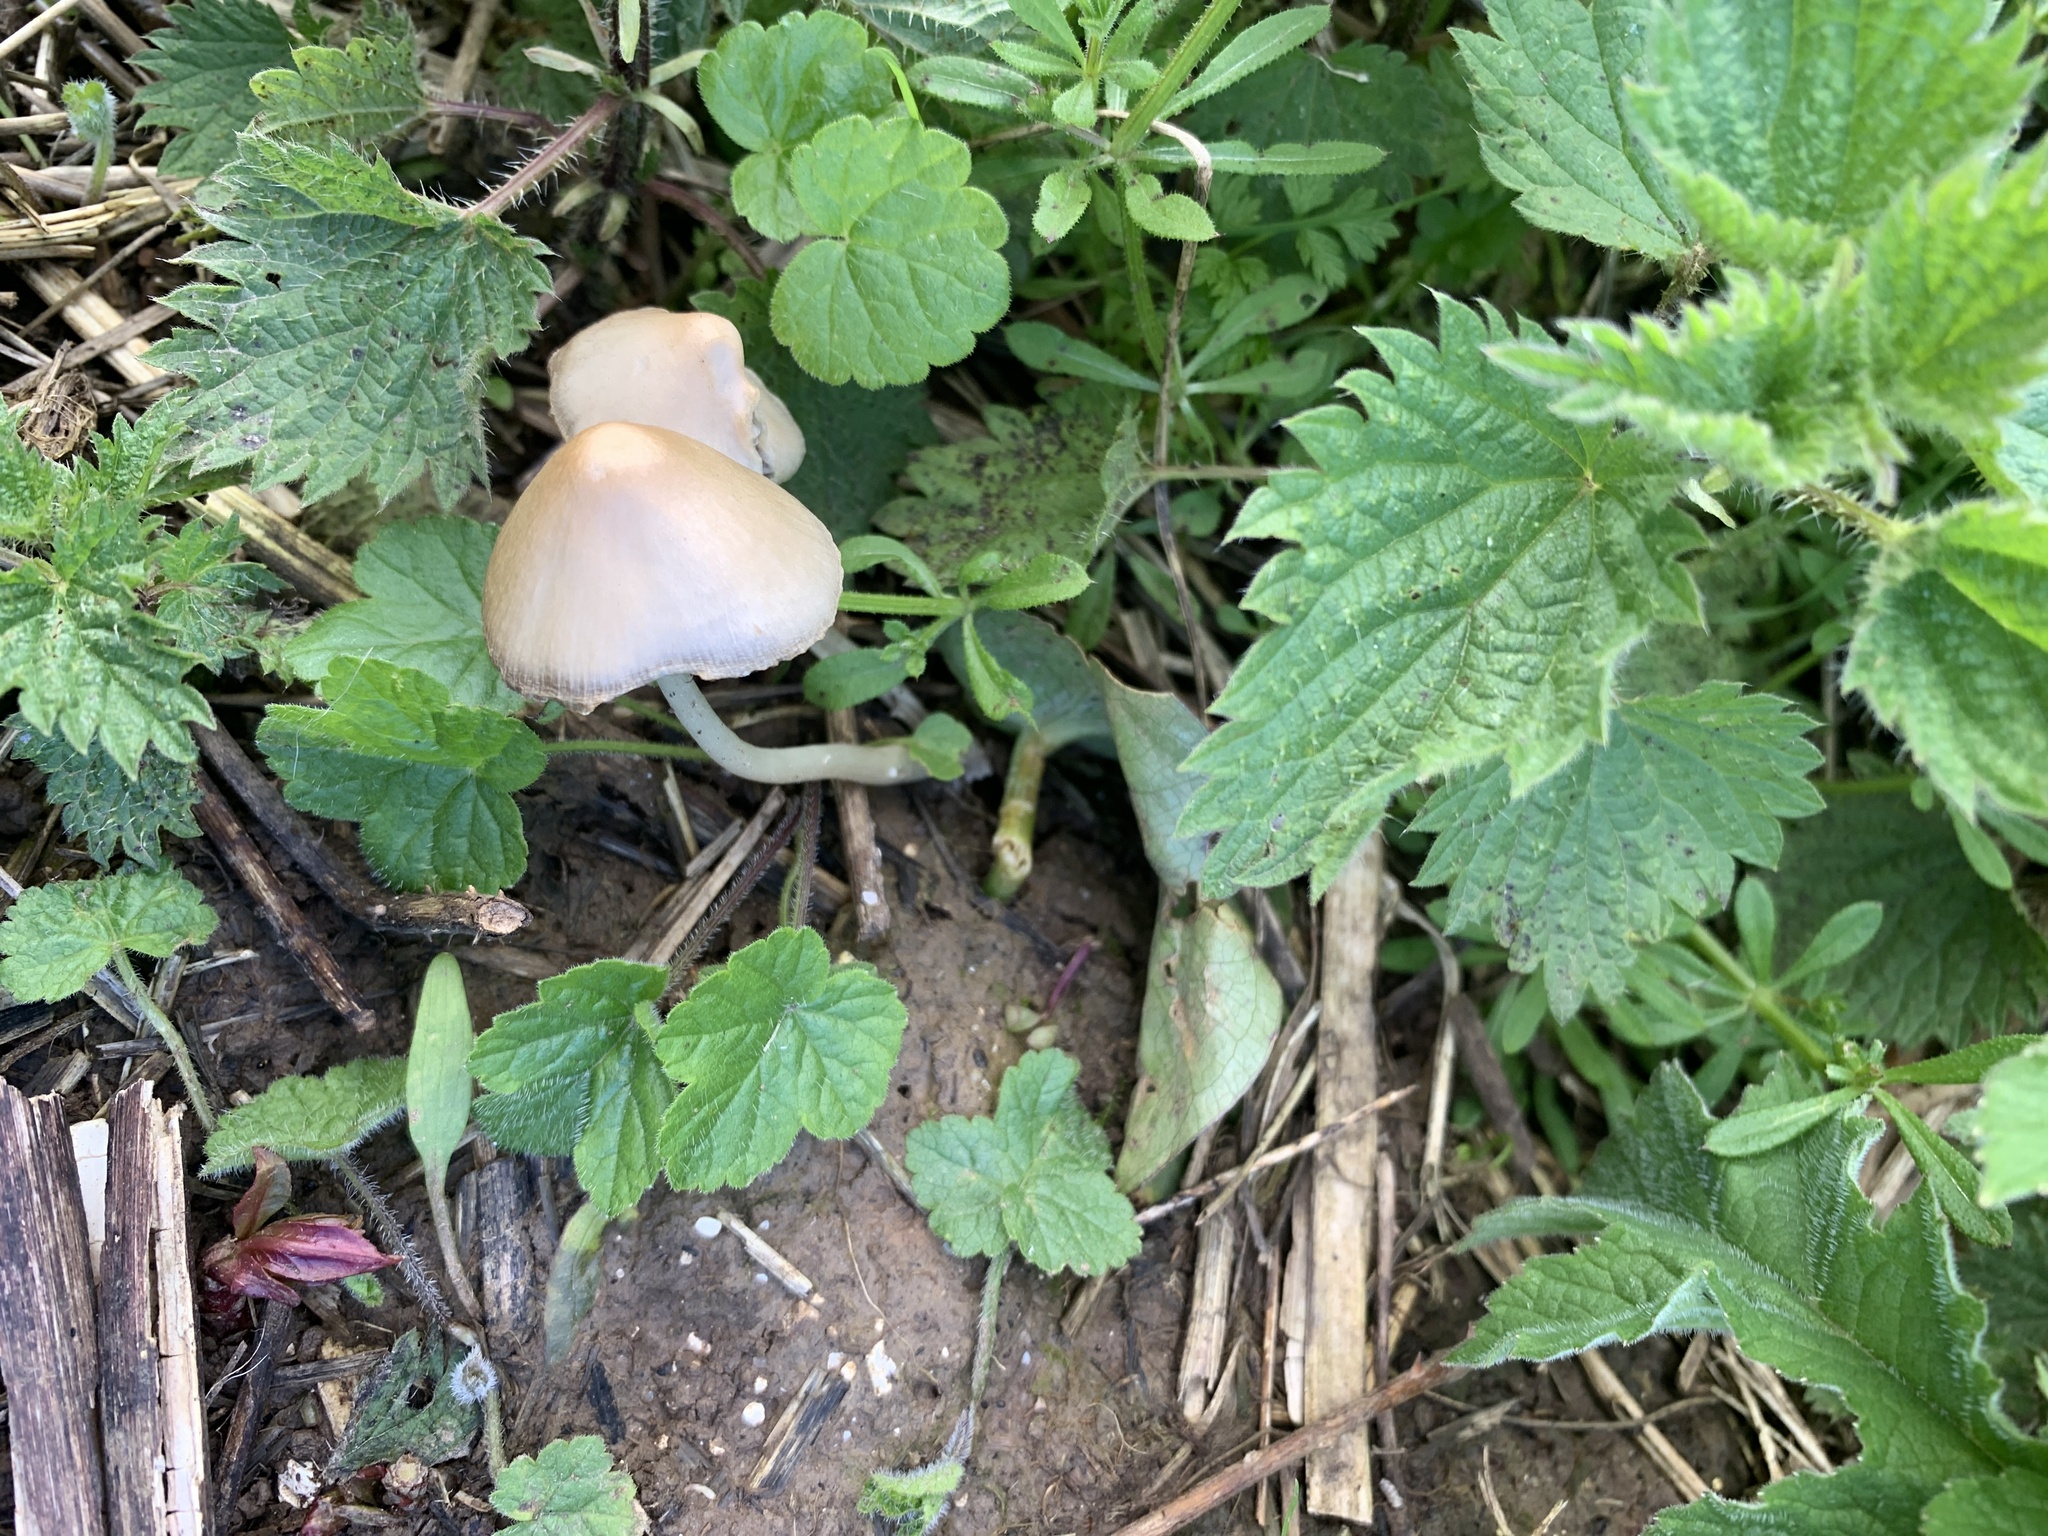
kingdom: Fungi
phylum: Basidiomycota
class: Agaricomycetes
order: Agaricales
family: Psathyrellaceae
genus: Candolleomyces
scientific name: Candolleomyces candolleanus
